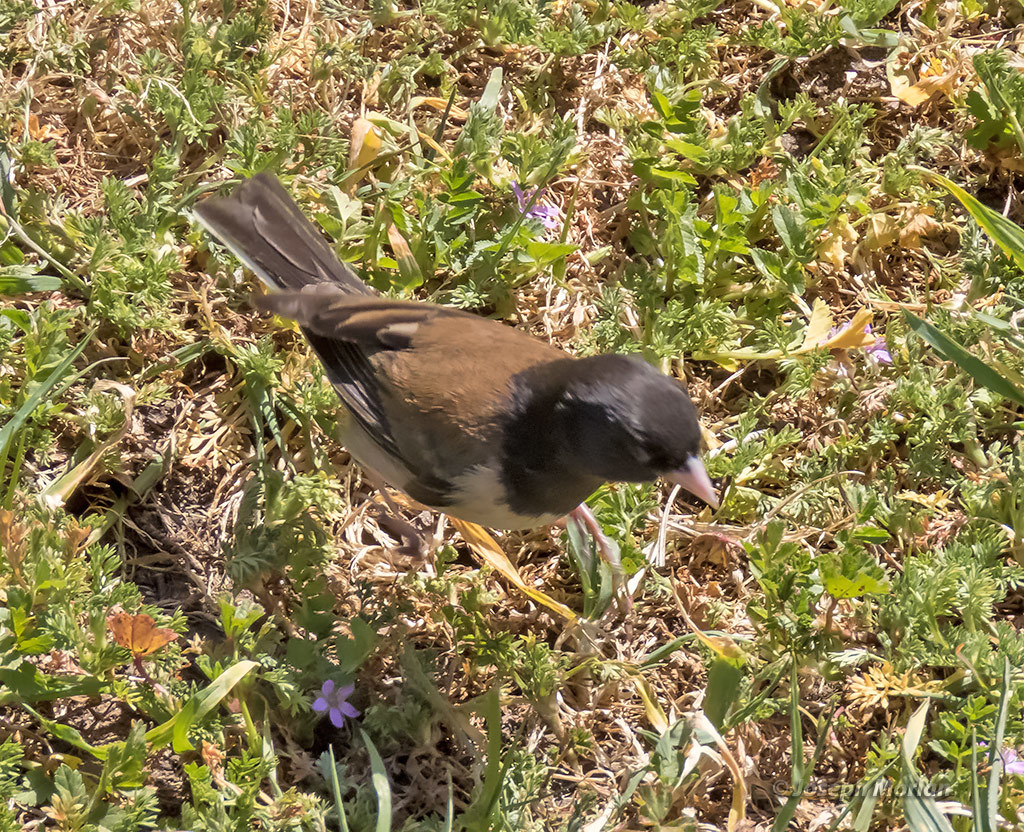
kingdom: Animalia
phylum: Chordata
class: Aves
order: Passeriformes
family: Passerellidae
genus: Junco
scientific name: Junco hyemalis
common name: Dark-eyed junco
